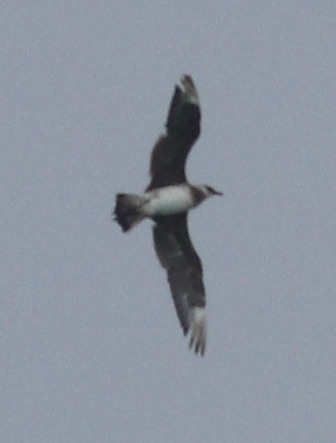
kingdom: Animalia
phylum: Chordata
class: Aves
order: Charadriiformes
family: Stercorariidae
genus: Stercorarius
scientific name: Stercorarius parasiticus
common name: Parasitic jaeger
